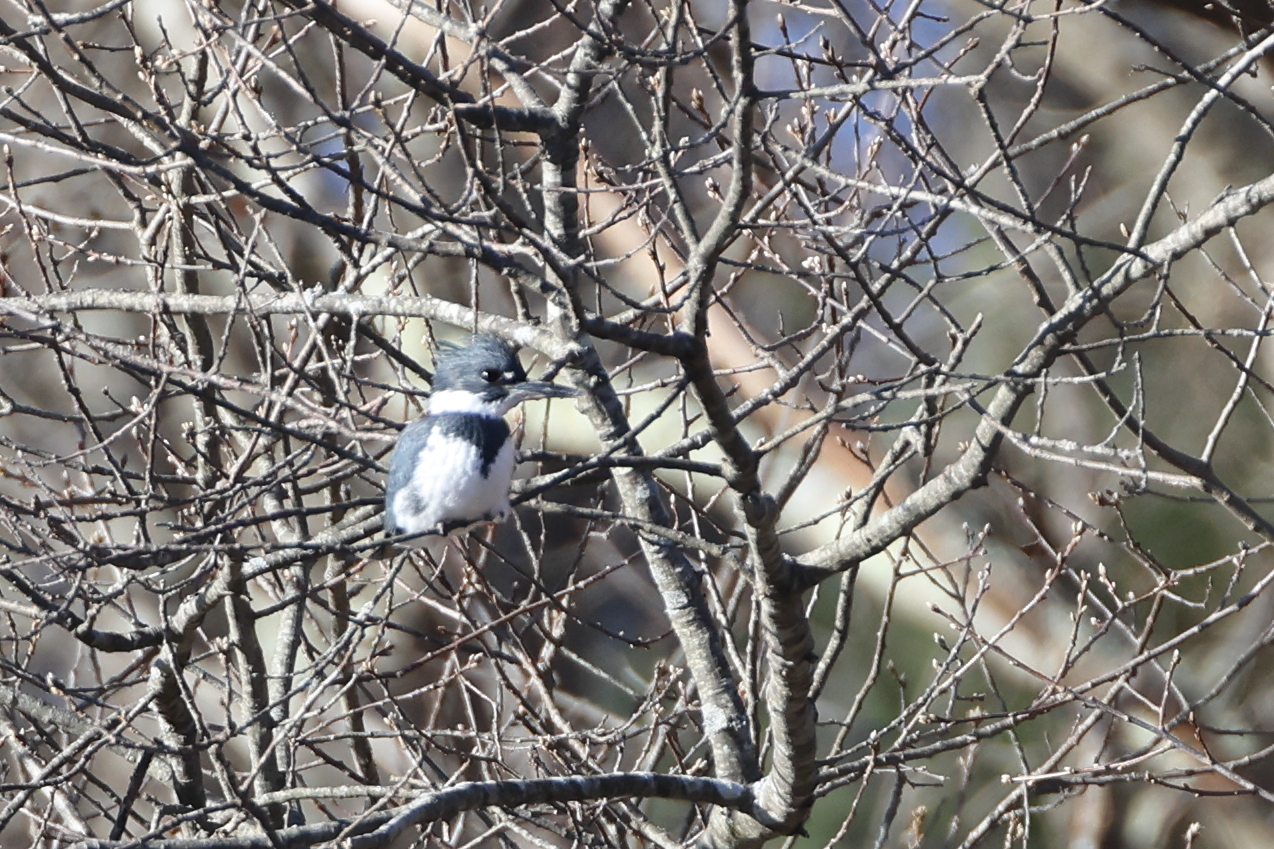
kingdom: Animalia
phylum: Chordata
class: Aves
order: Coraciiformes
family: Alcedinidae
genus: Megaceryle
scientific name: Megaceryle alcyon
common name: Belted kingfisher
